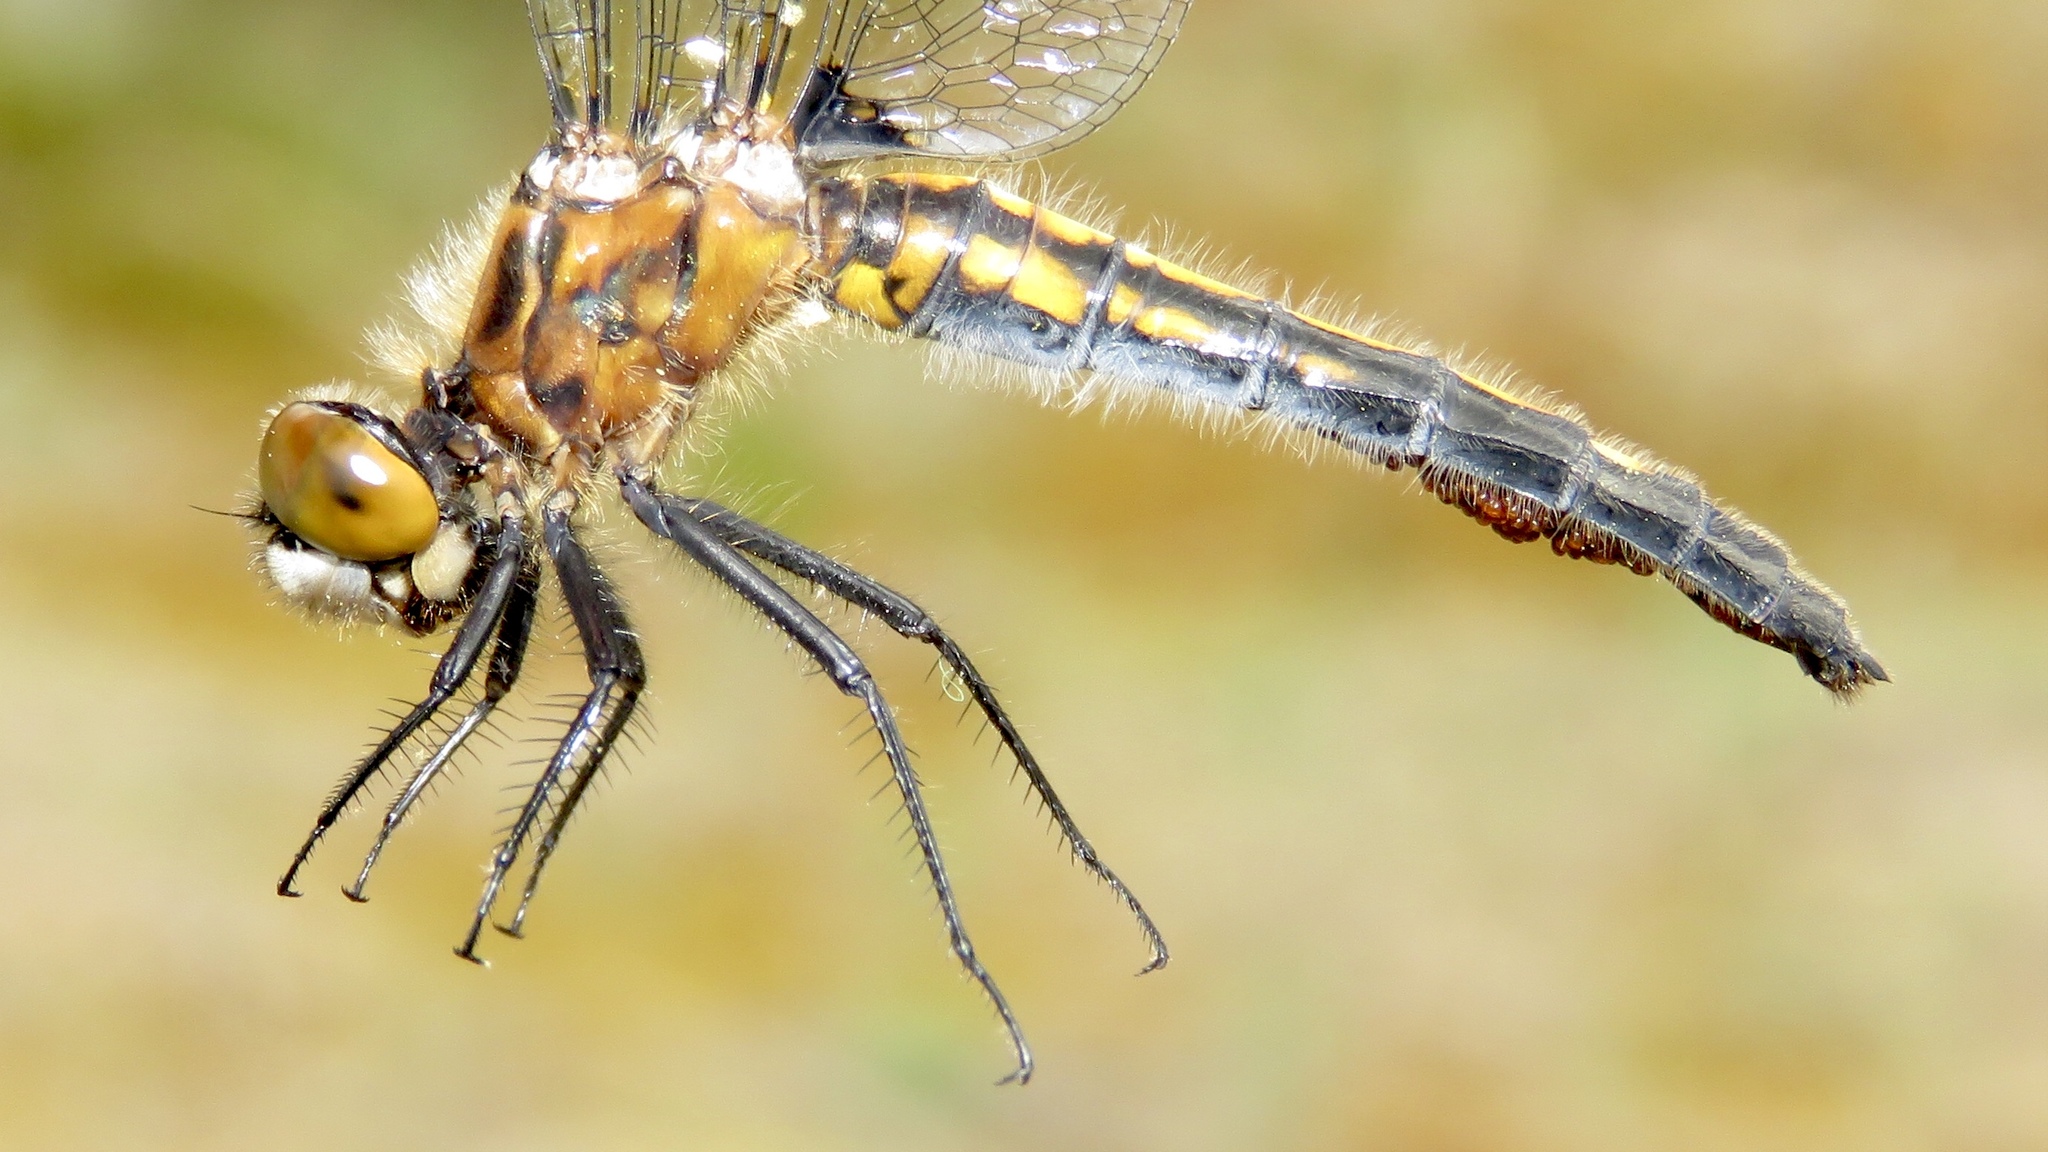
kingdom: Animalia
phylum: Arthropoda
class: Insecta
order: Odonata
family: Libellulidae
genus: Leucorrhinia
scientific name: Leucorrhinia intacta
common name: Dot-tailed whiteface
